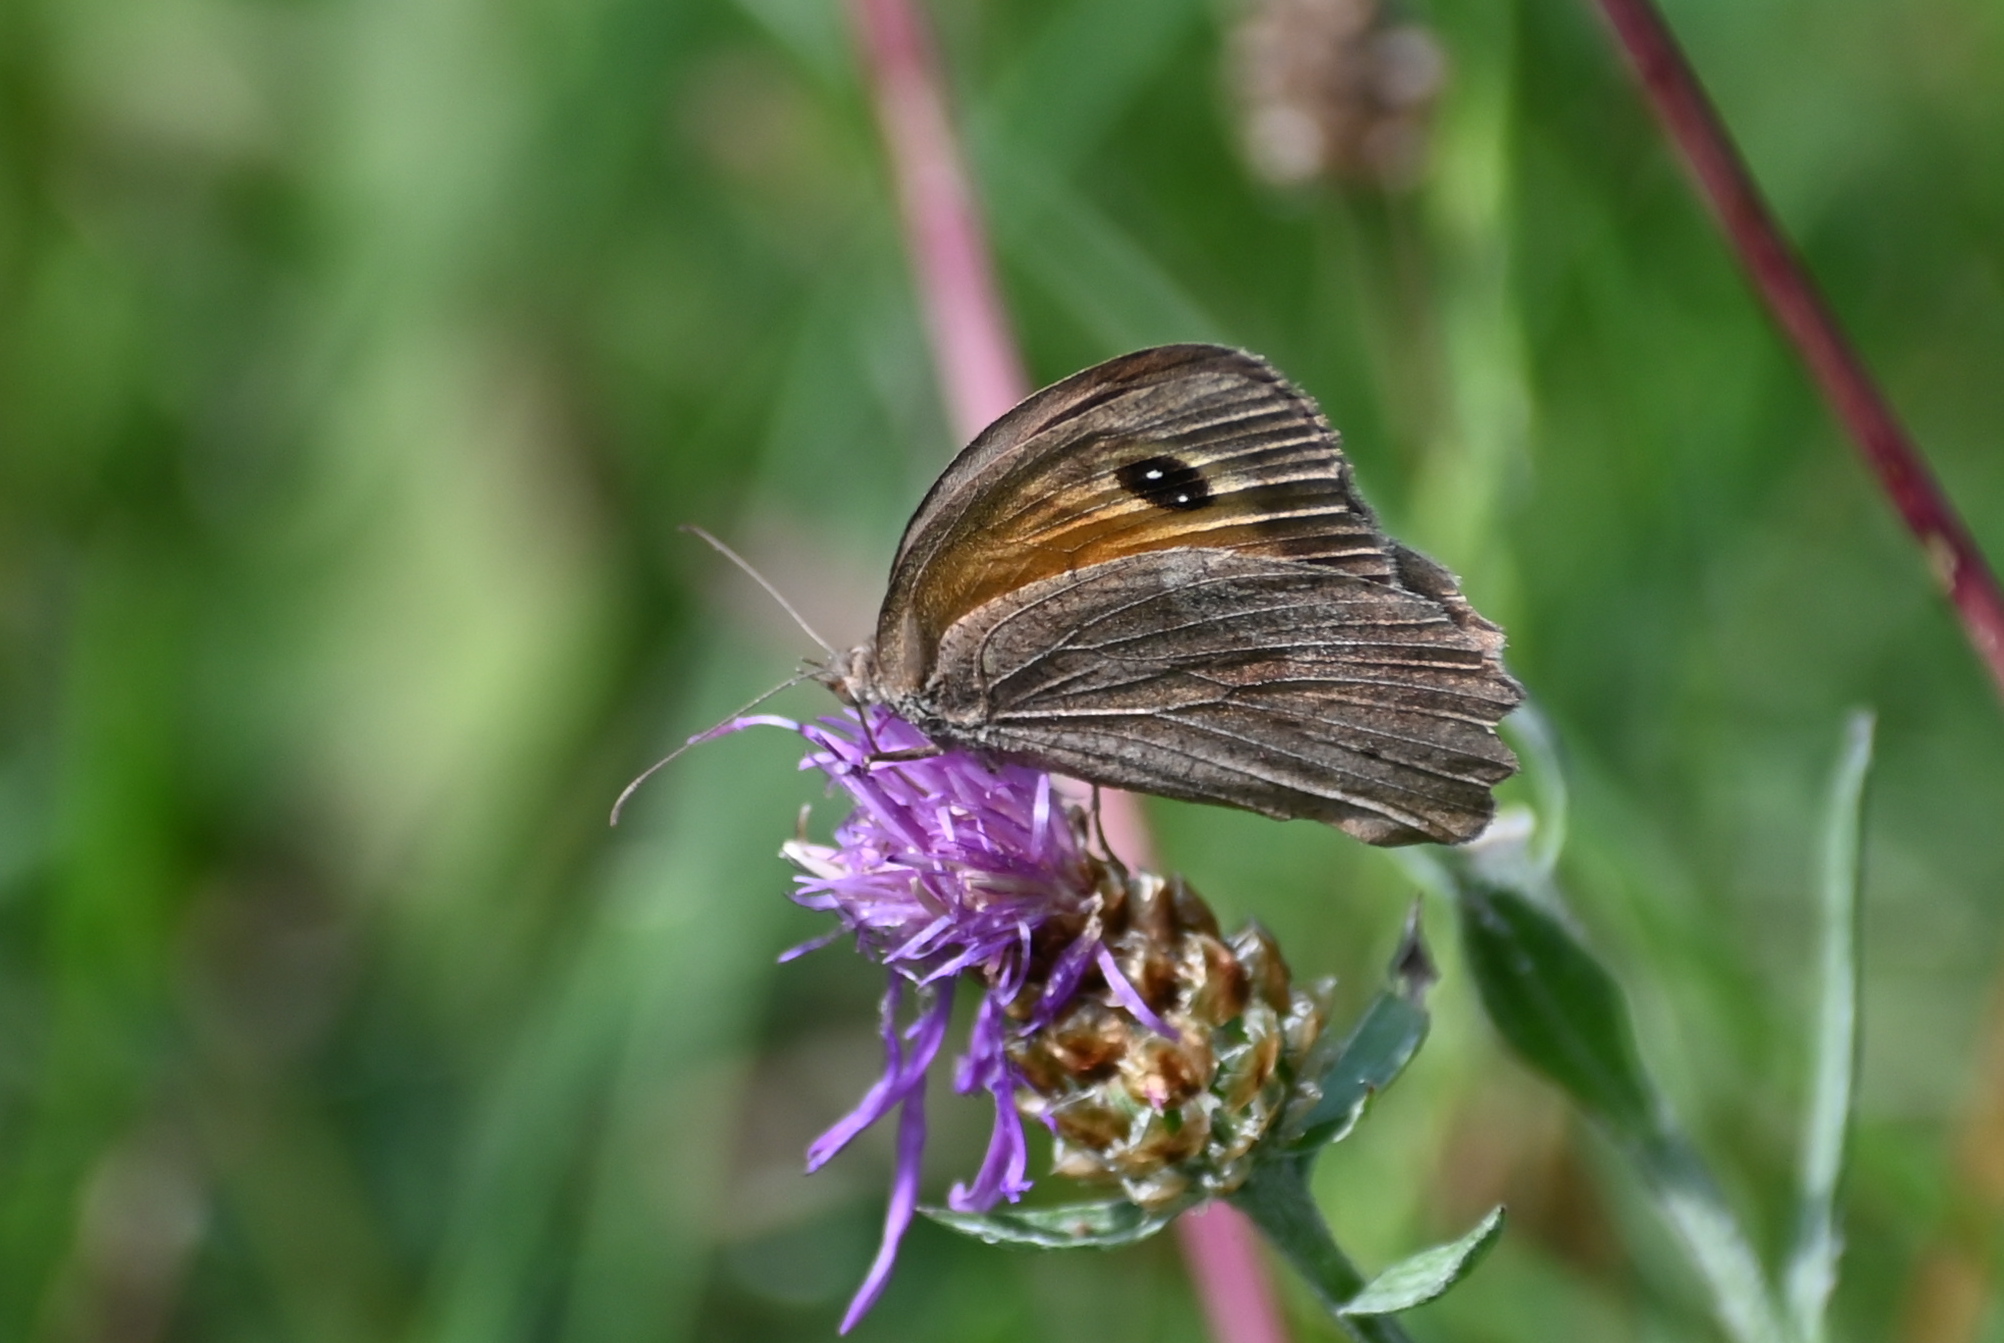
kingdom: Animalia
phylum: Arthropoda
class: Insecta
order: Lepidoptera
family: Nymphalidae
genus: Maniola
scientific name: Maniola jurtina
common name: Meadow brown
